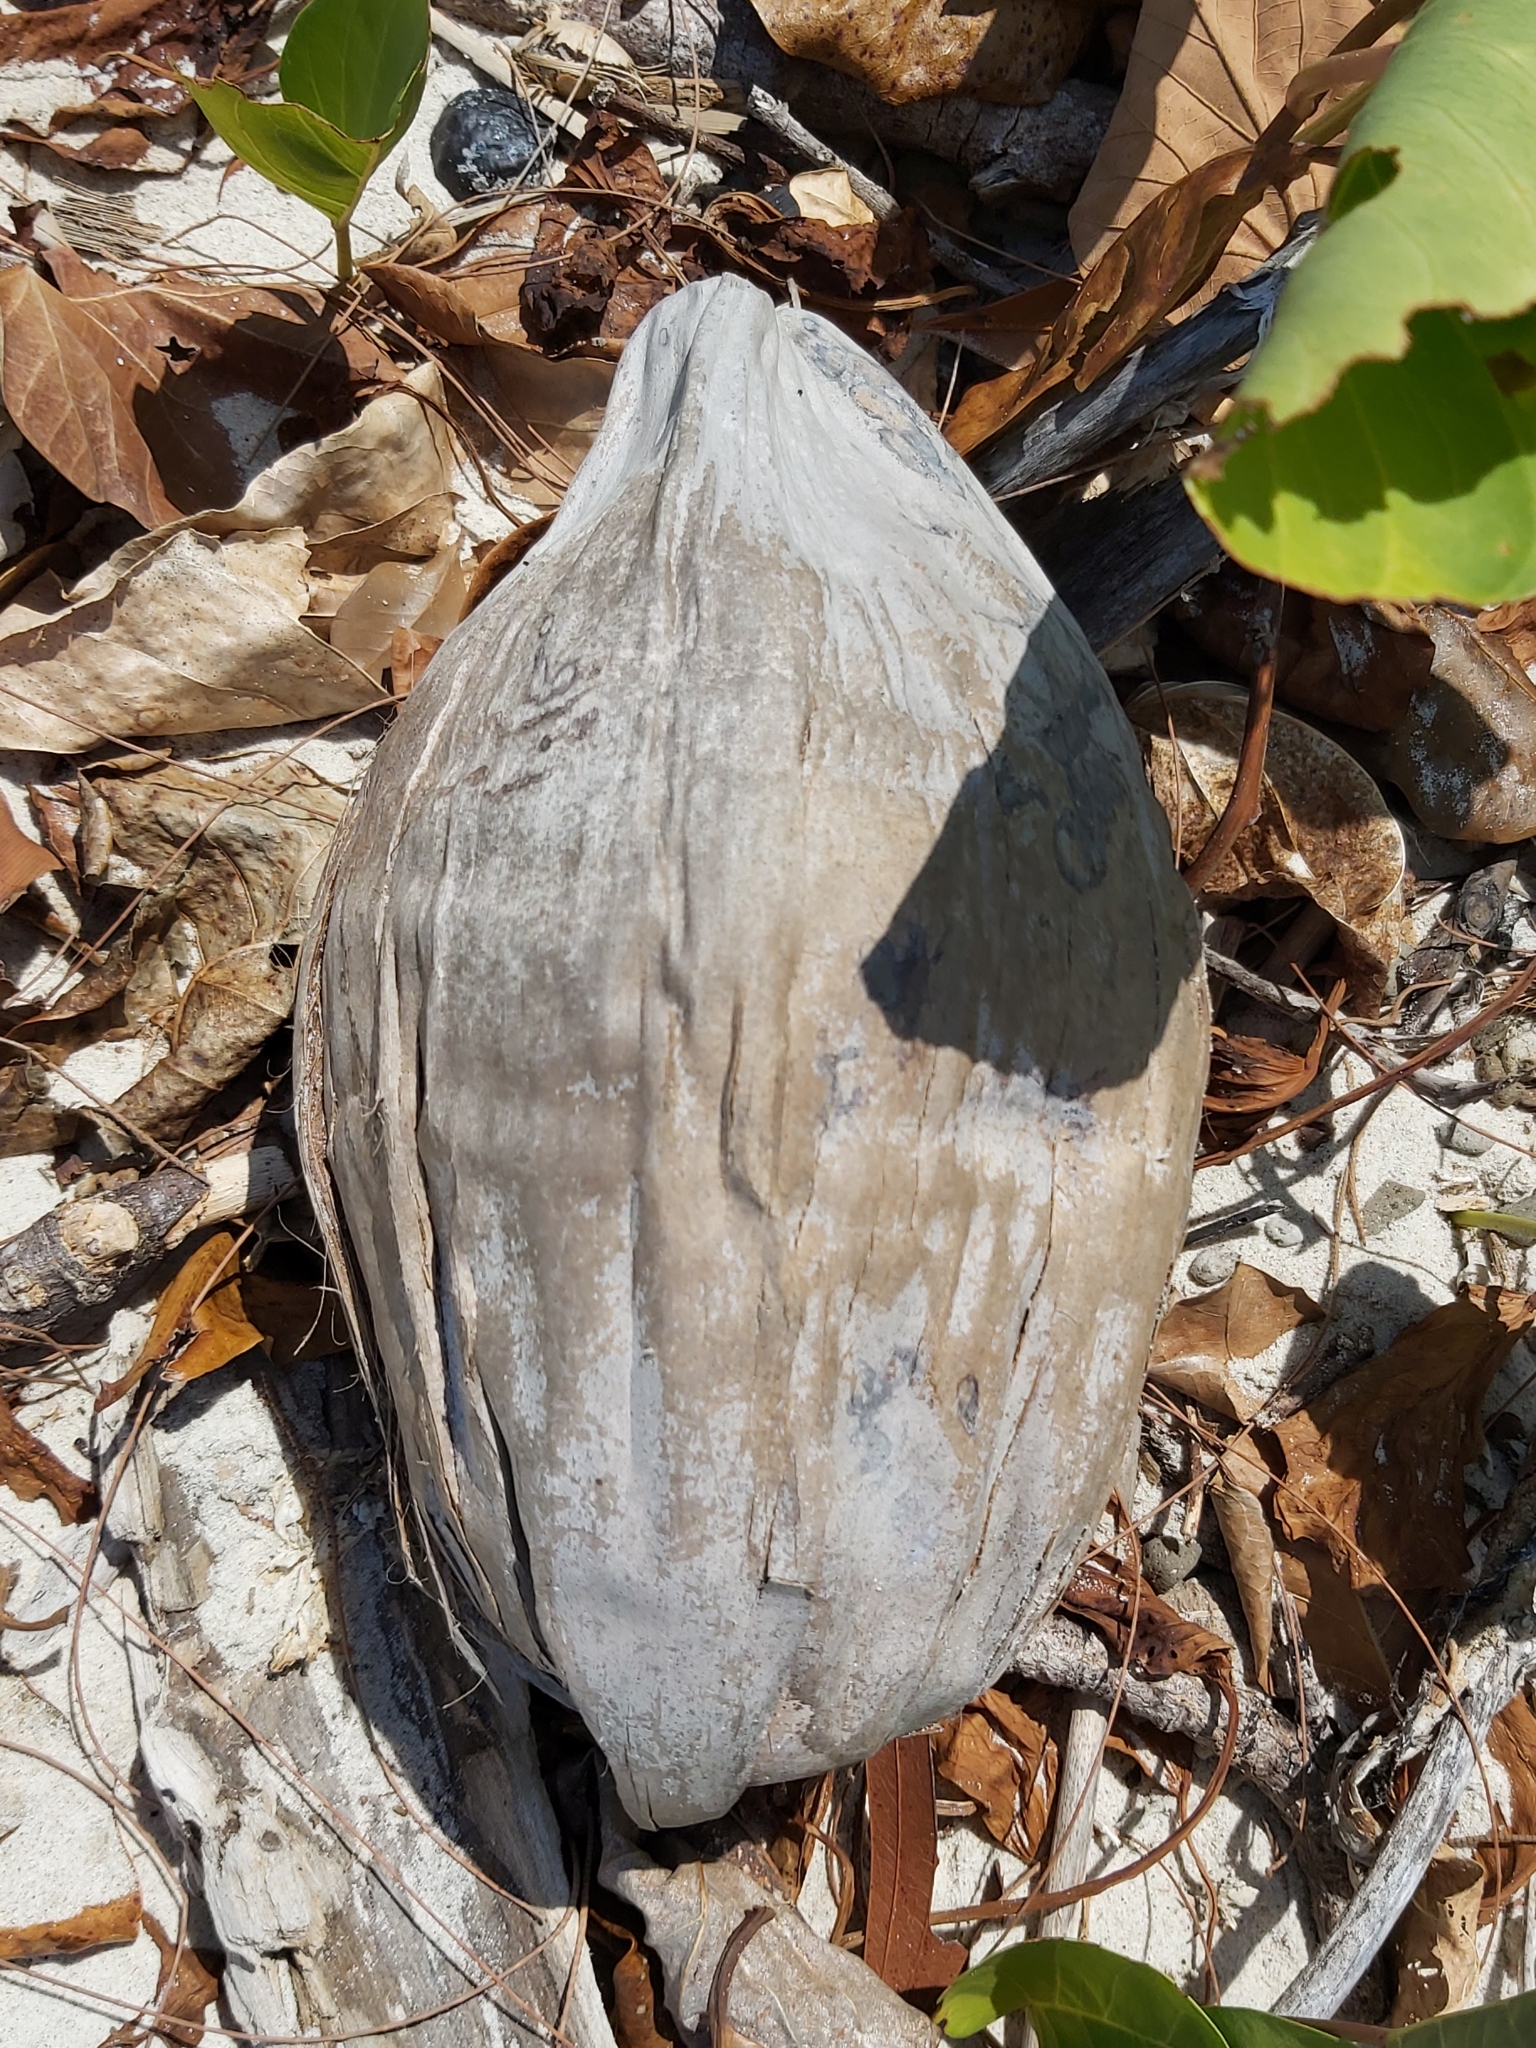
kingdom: Plantae
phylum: Tracheophyta
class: Liliopsida
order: Arecales
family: Arecaceae
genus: Cocos
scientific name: Cocos nucifera
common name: Coconut palm
